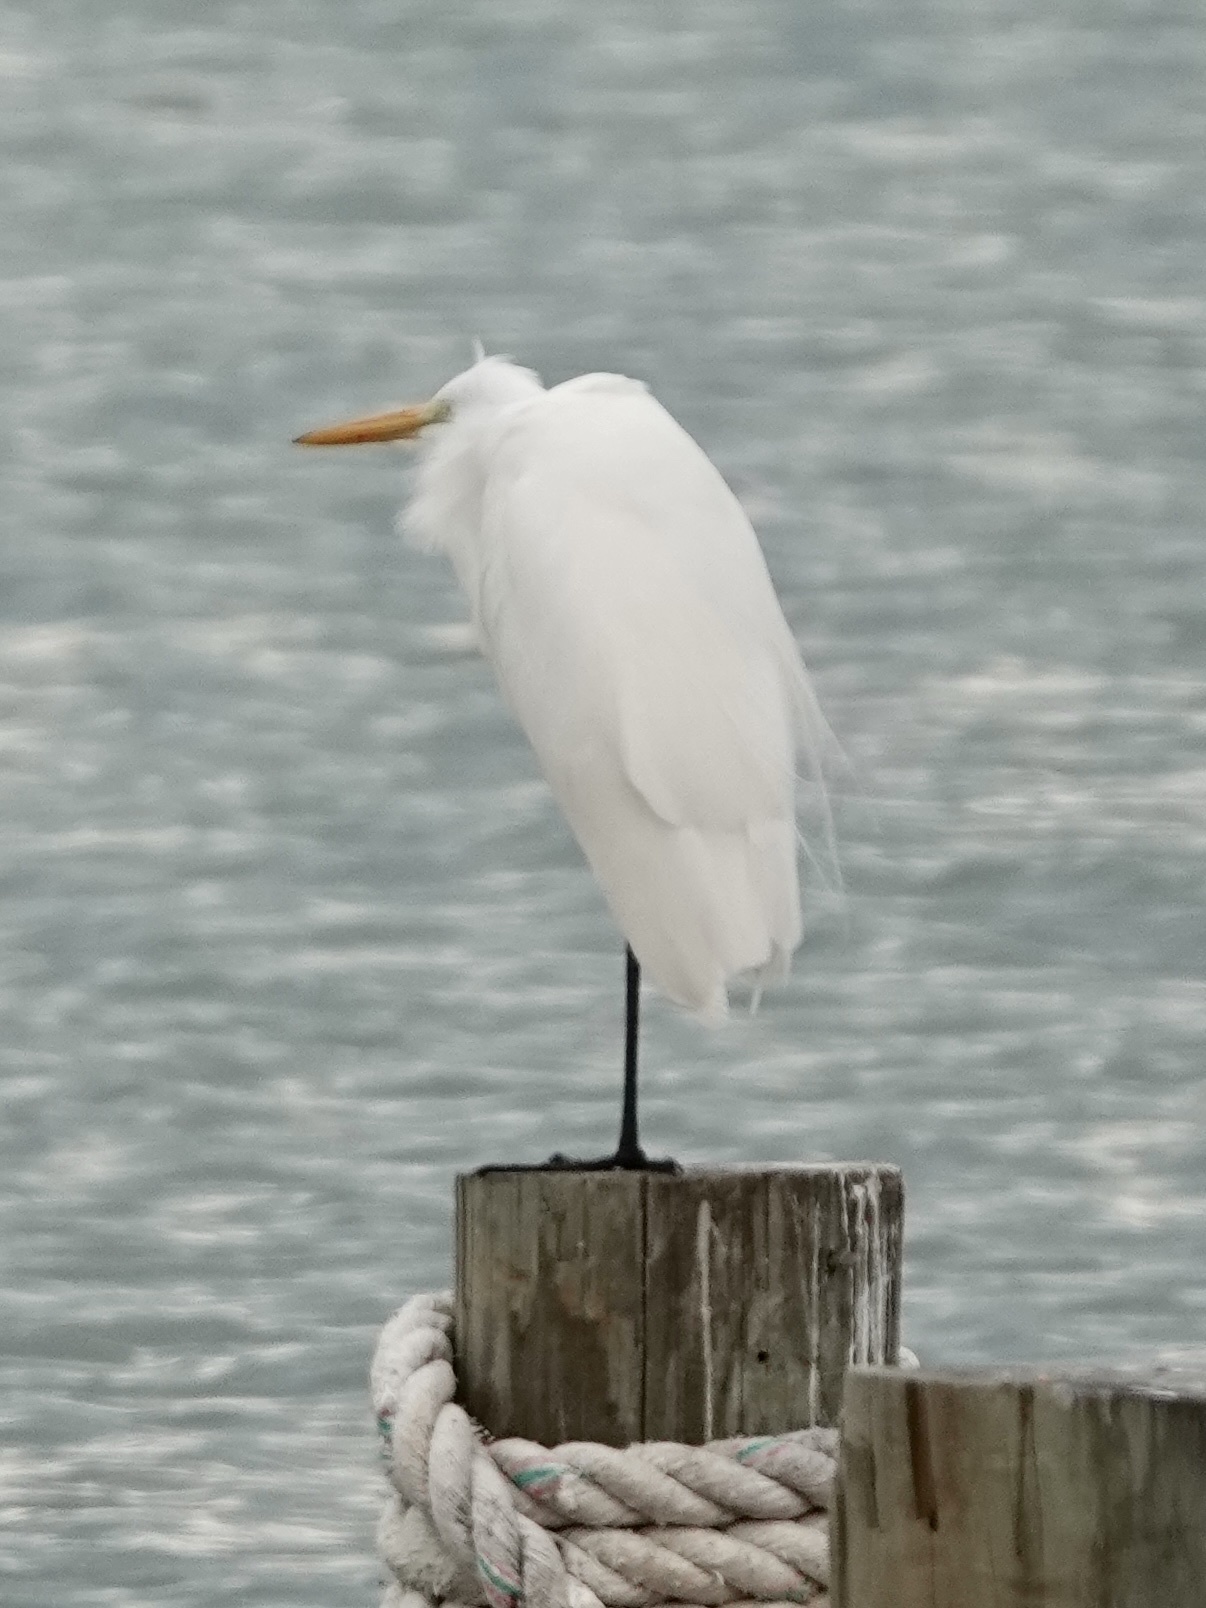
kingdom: Animalia
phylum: Chordata
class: Aves
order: Pelecaniformes
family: Ardeidae
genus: Ardea
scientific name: Ardea alba
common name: Great egret
